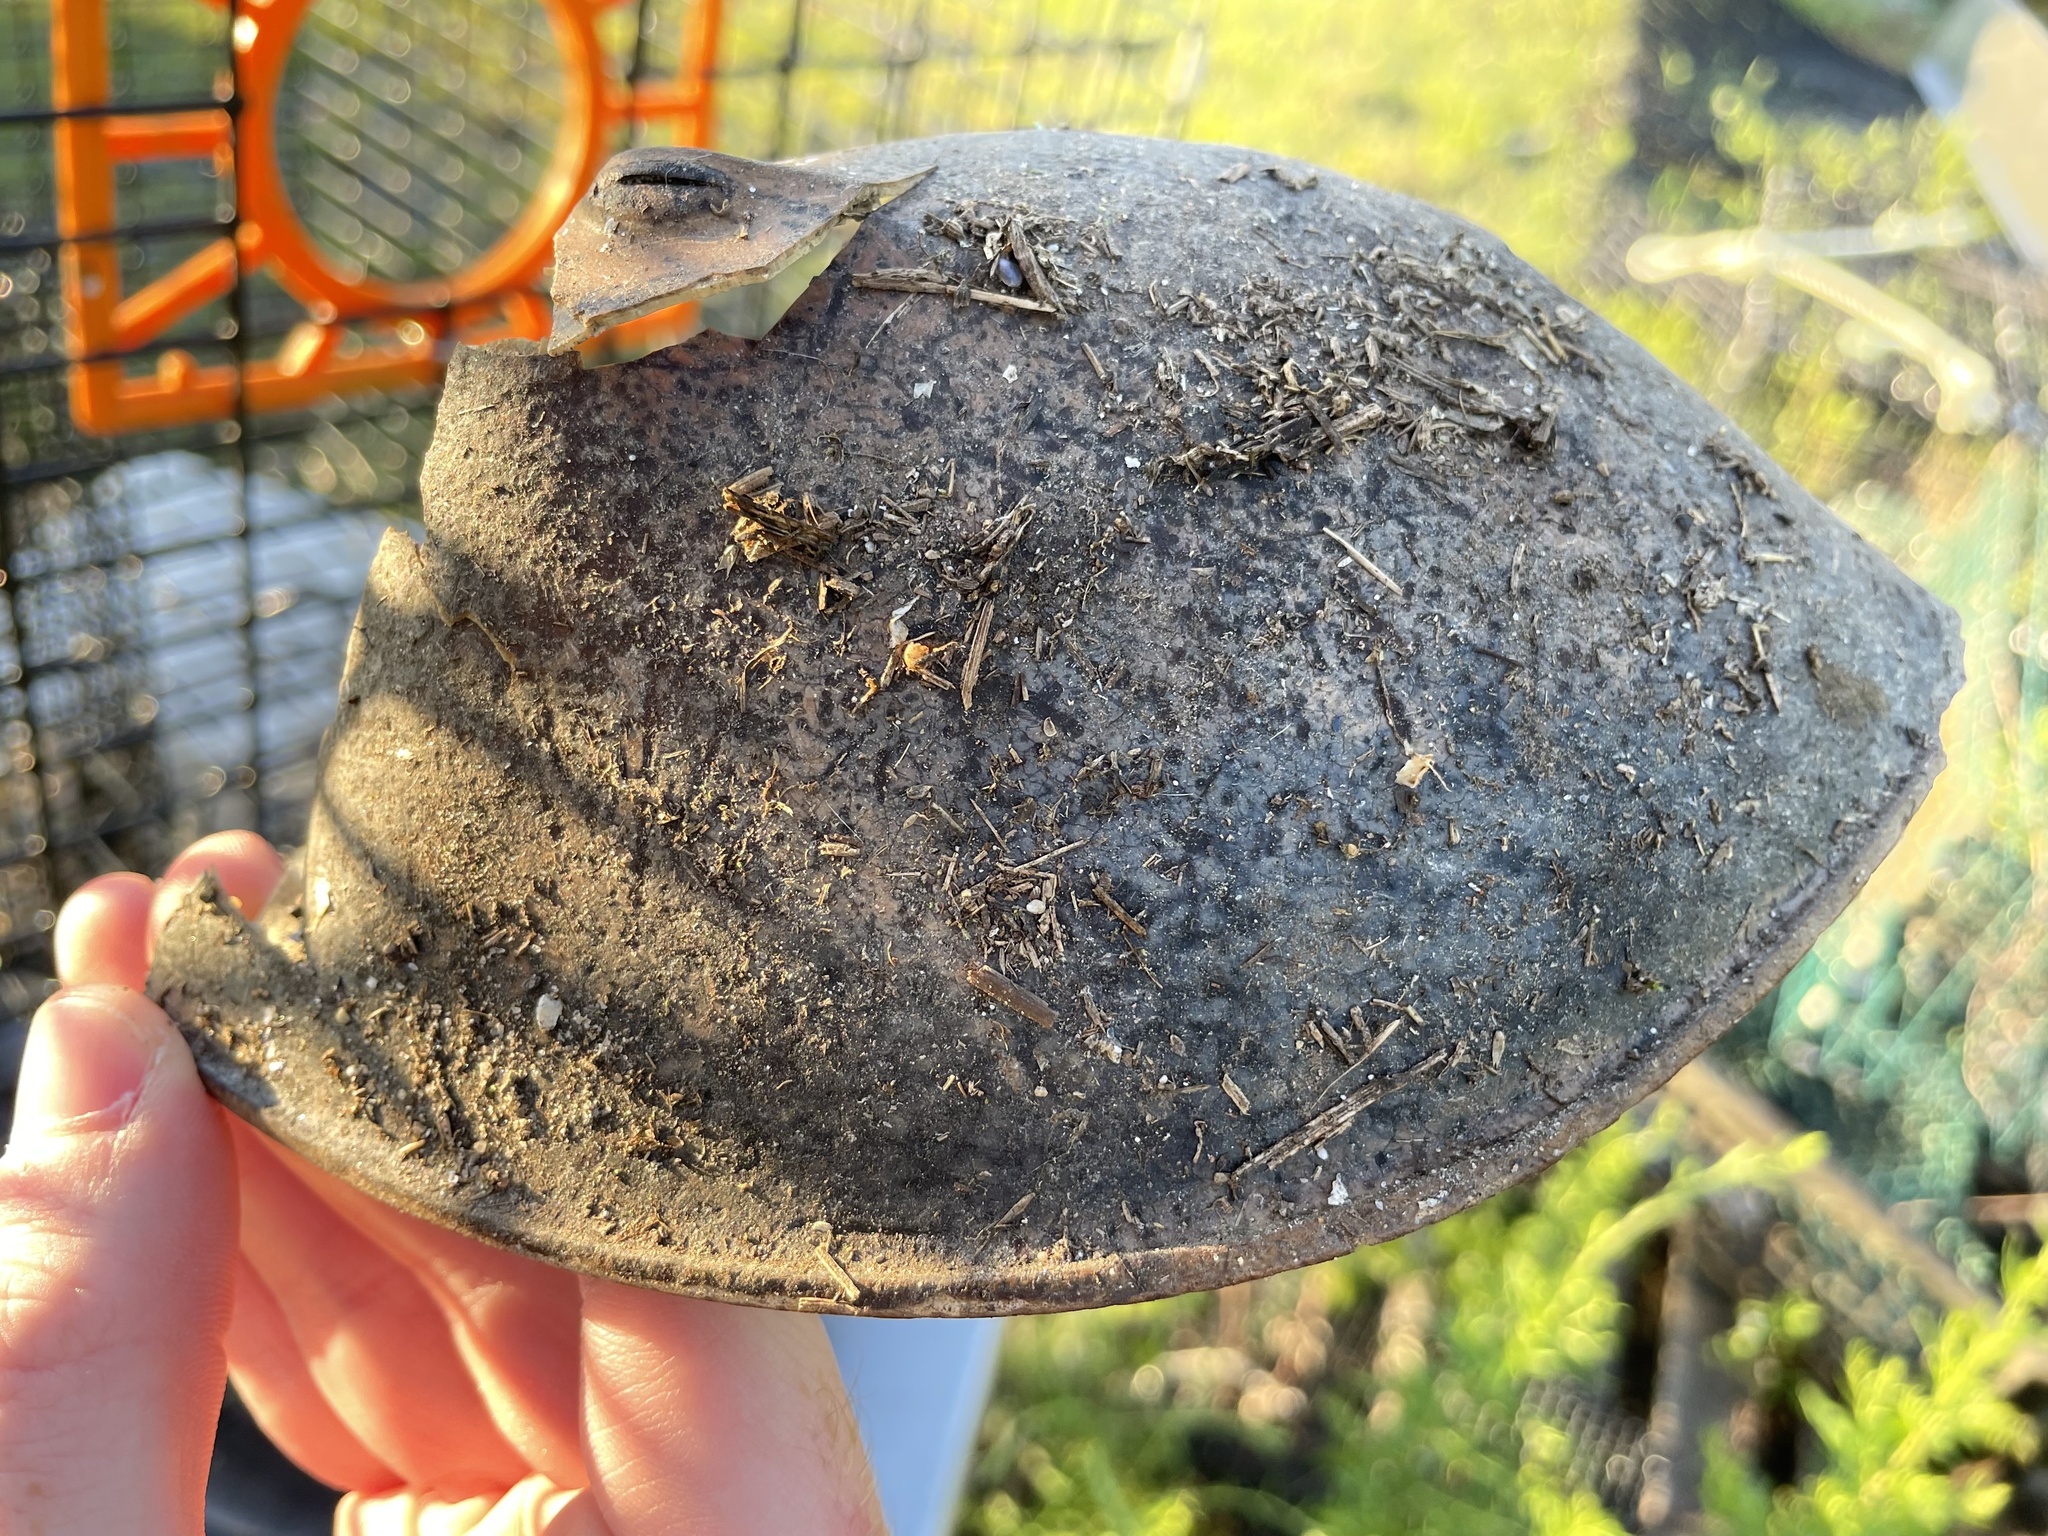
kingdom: Animalia
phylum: Arthropoda
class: Merostomata
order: Xiphosurida
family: Limulidae
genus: Limulus
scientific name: Limulus polyphemus
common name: Horseshoe crab
